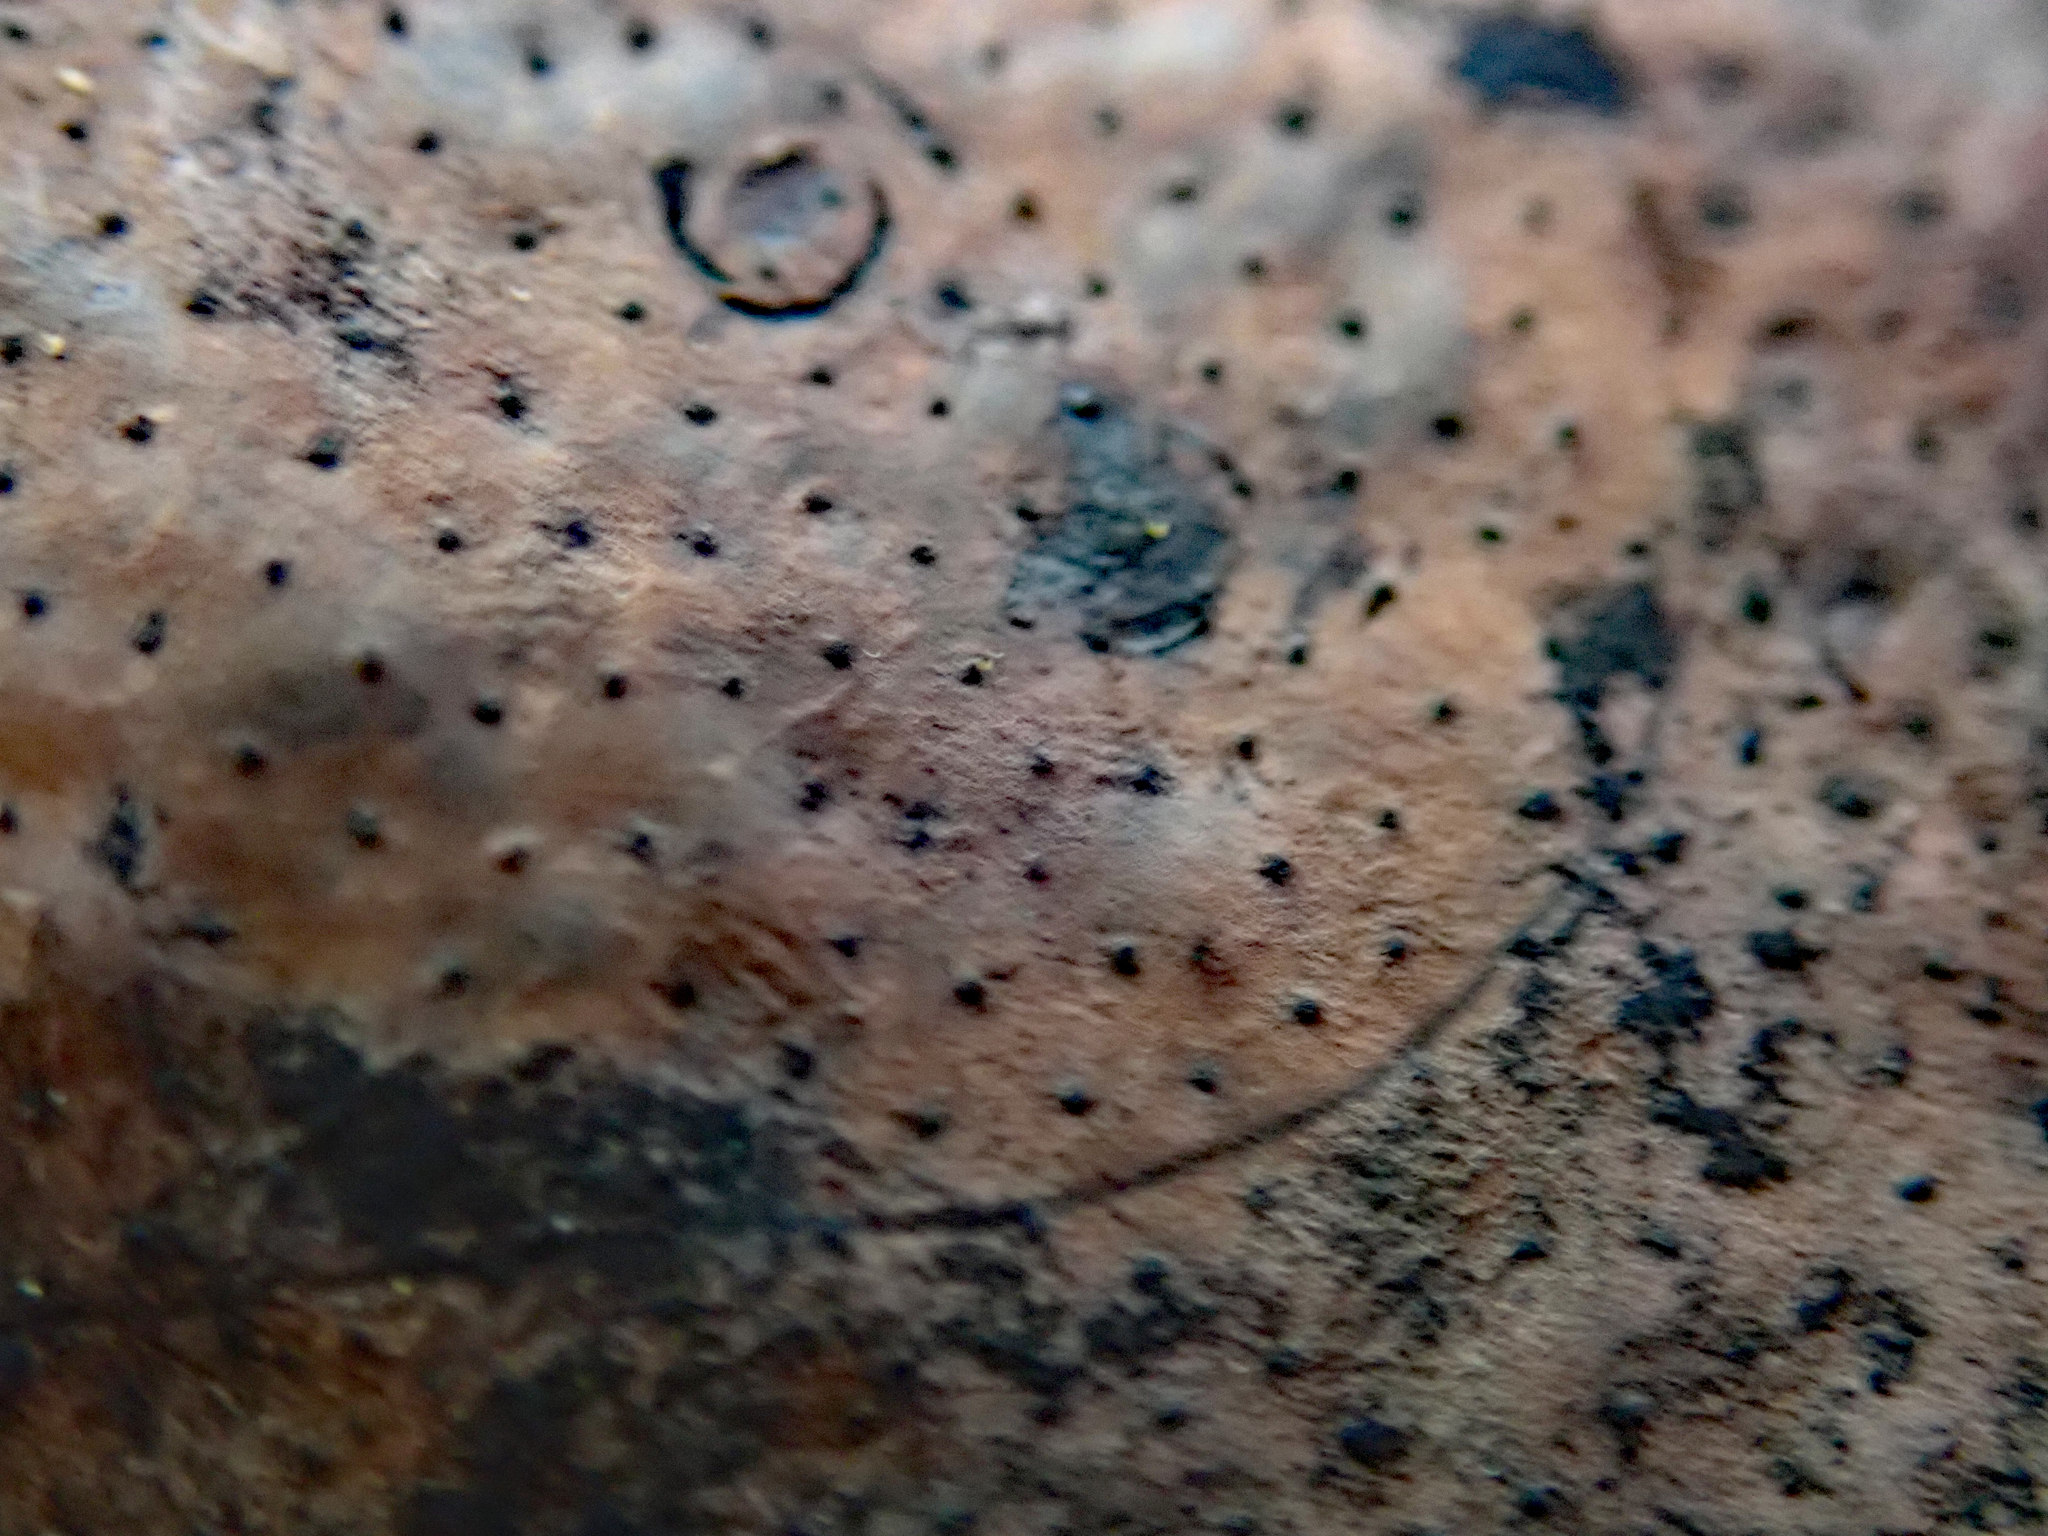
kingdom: Fungi
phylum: Ascomycota
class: Sordariomycetes
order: Xylariales
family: Hypoxylaceae
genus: Daldinia
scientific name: Daldinia
